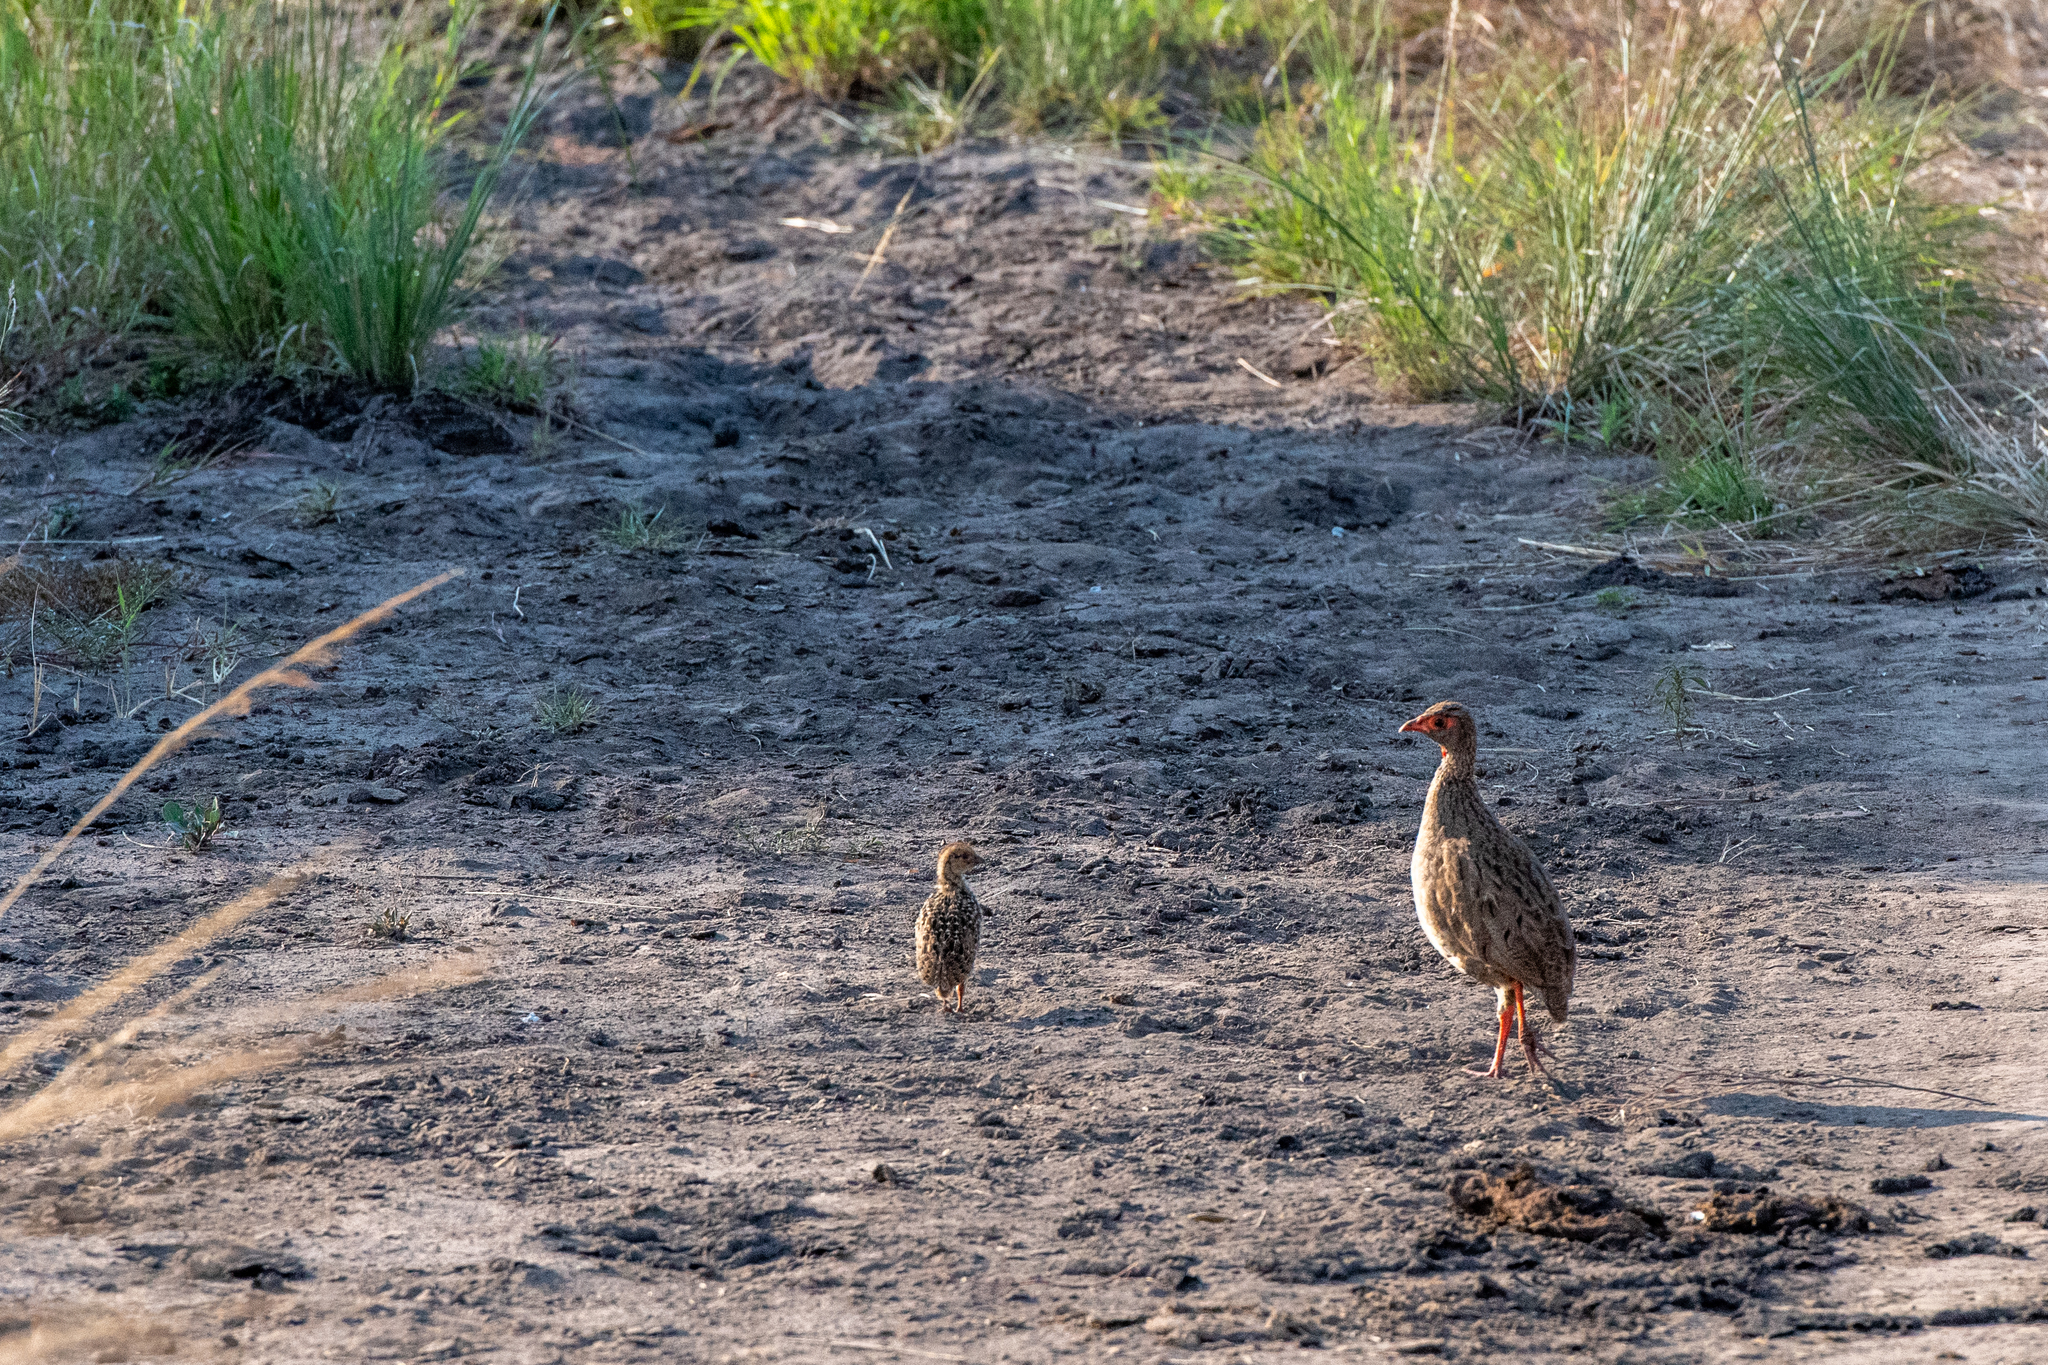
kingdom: Animalia
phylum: Chordata
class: Aves
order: Galliformes
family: Phasianidae
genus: Pternistis
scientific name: Pternistis afer
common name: Red-necked spurfowl
